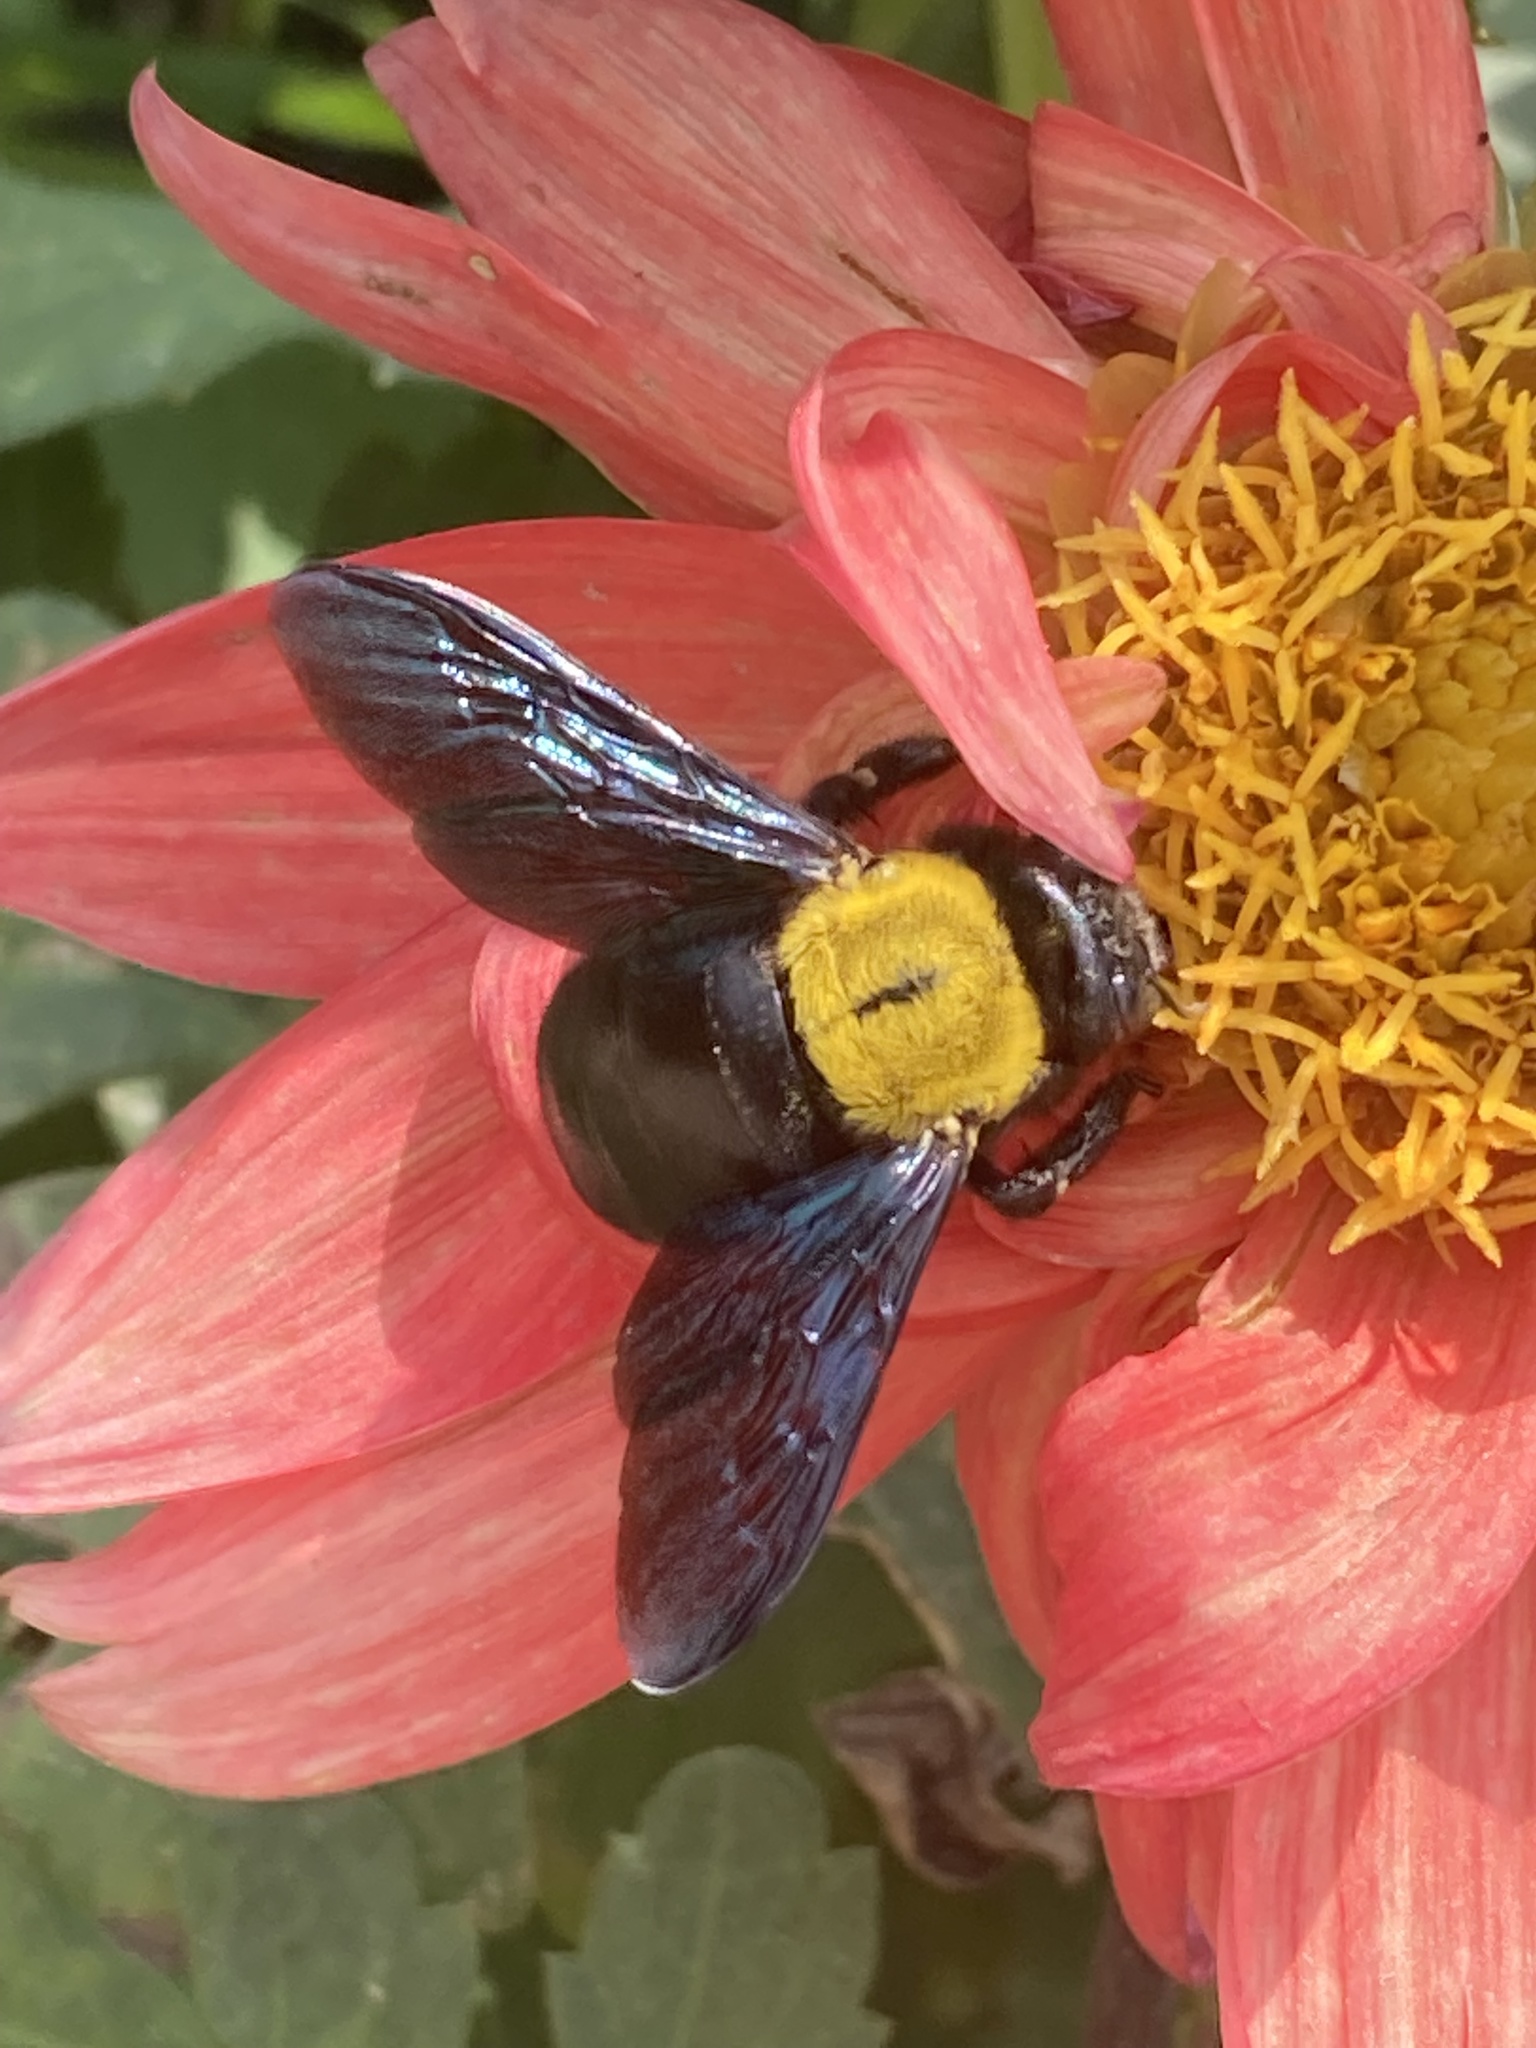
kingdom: Animalia
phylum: Arthropoda
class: Insecta
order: Hymenoptera
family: Apidae
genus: Xylocopa
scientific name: Xylocopa pubescens
